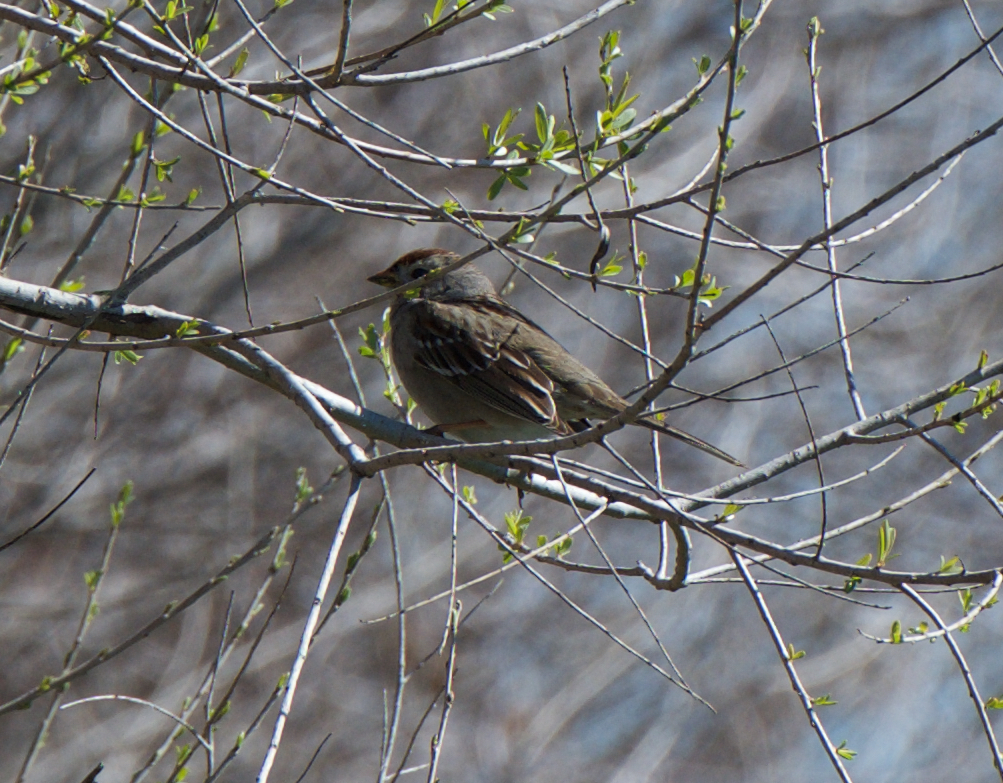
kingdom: Animalia
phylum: Chordata
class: Aves
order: Passeriformes
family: Passerellidae
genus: Zonotrichia
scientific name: Zonotrichia leucophrys
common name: White-crowned sparrow
